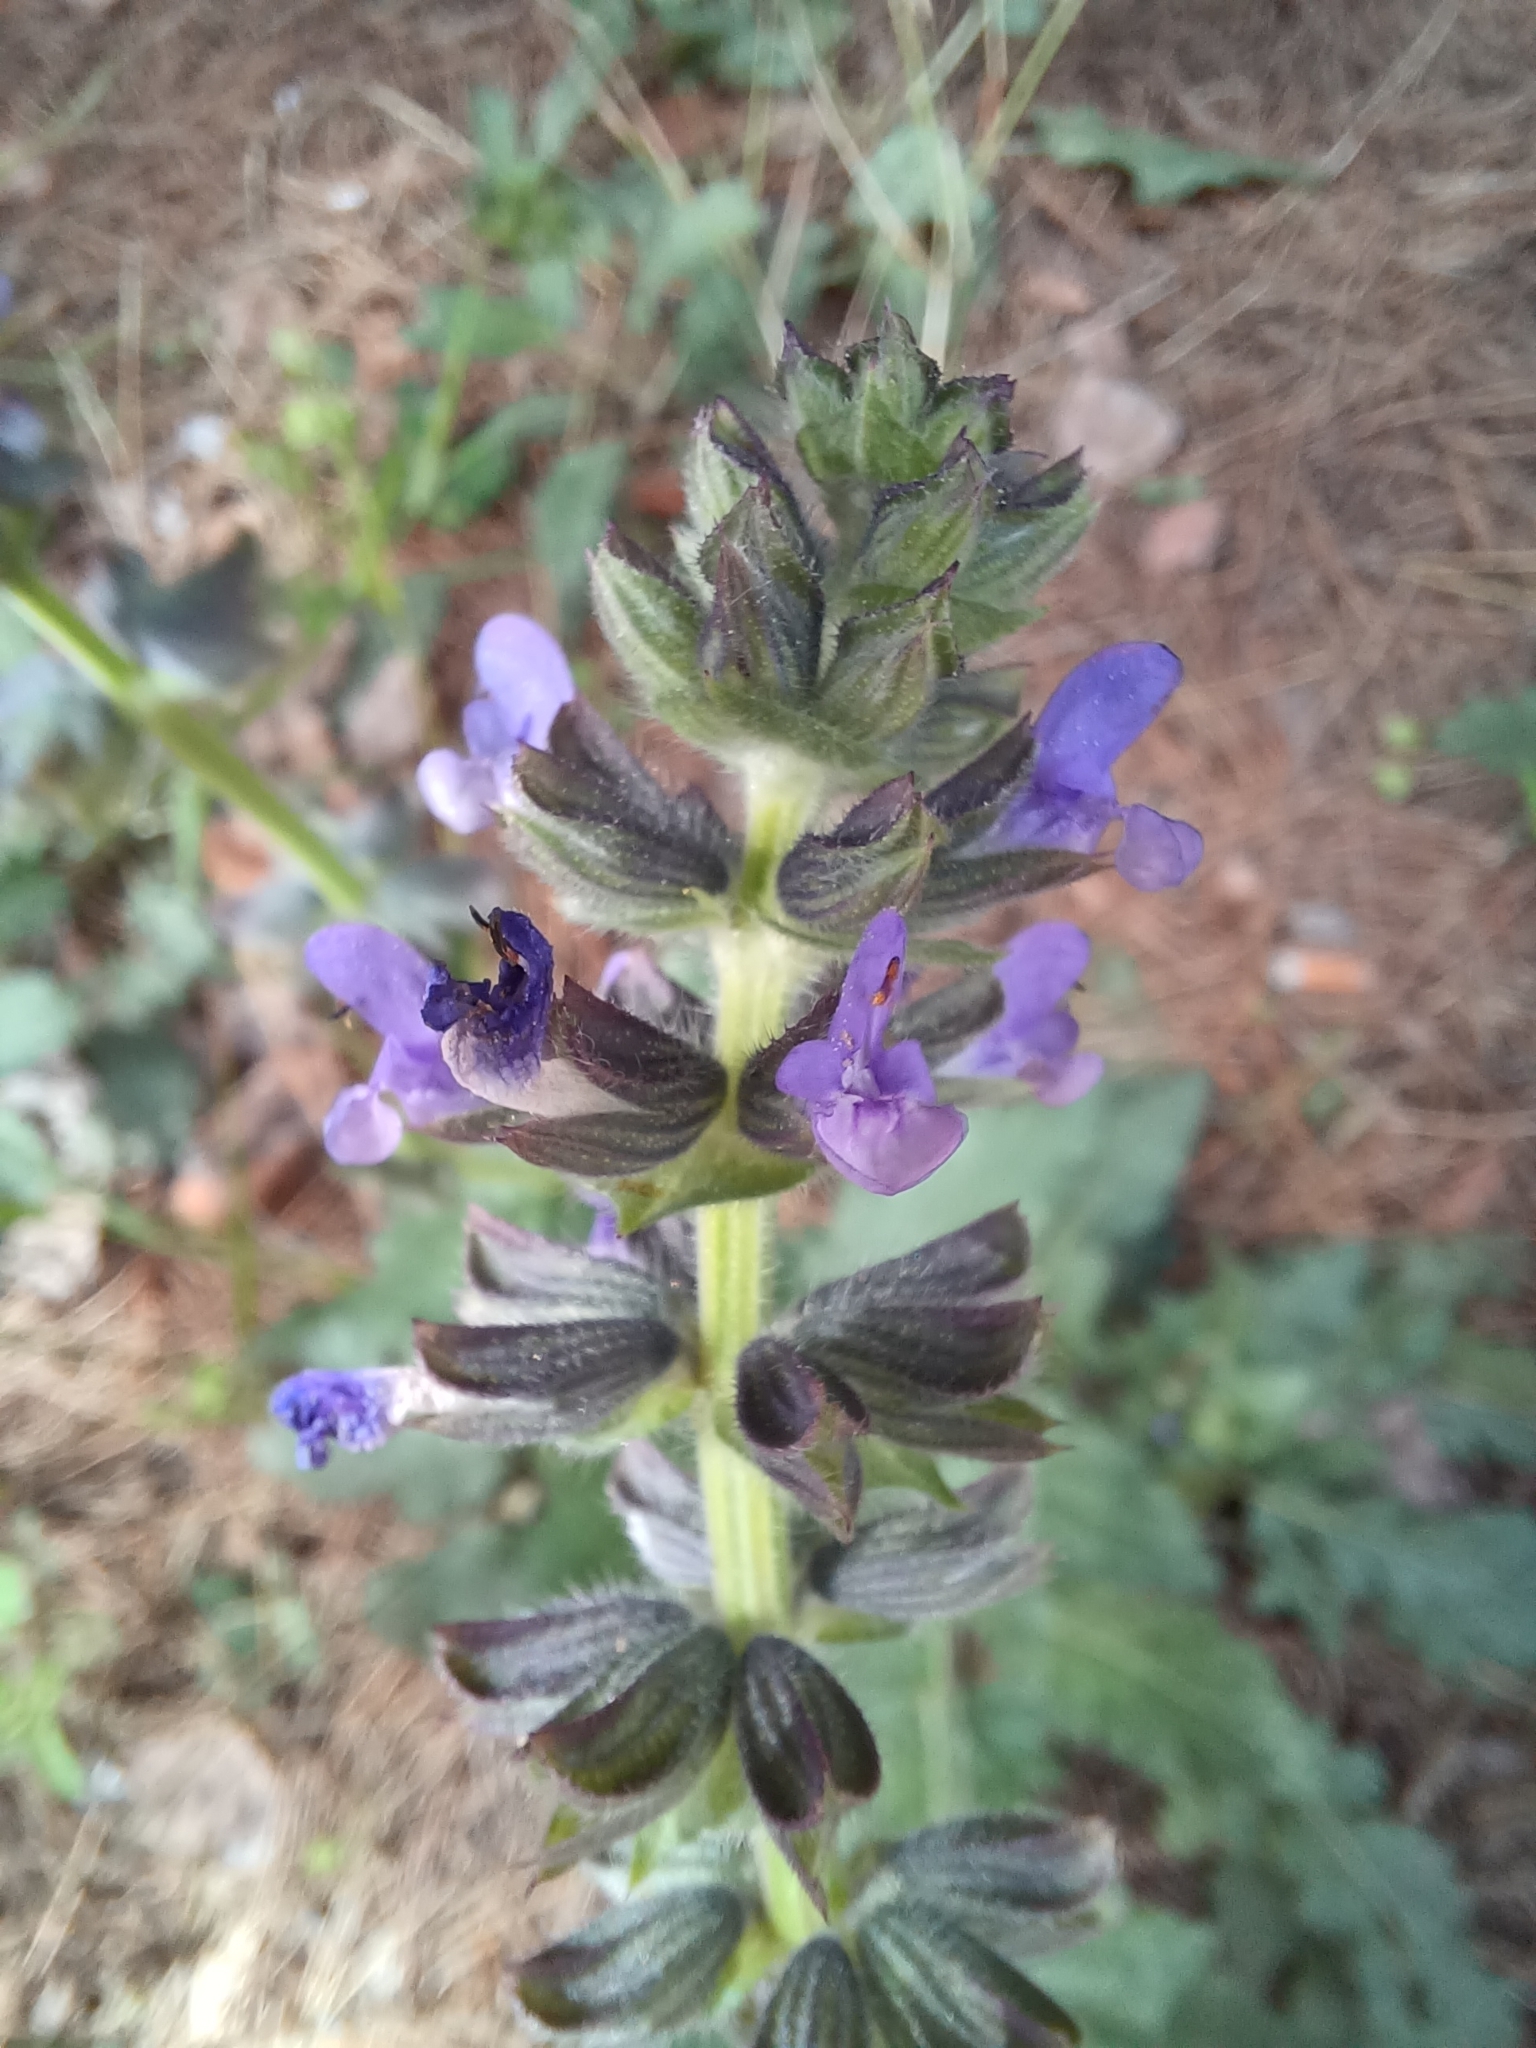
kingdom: Plantae
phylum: Tracheophyta
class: Magnoliopsida
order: Lamiales
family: Lamiaceae
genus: Salvia
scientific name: Salvia verbenaca
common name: Wild clary
